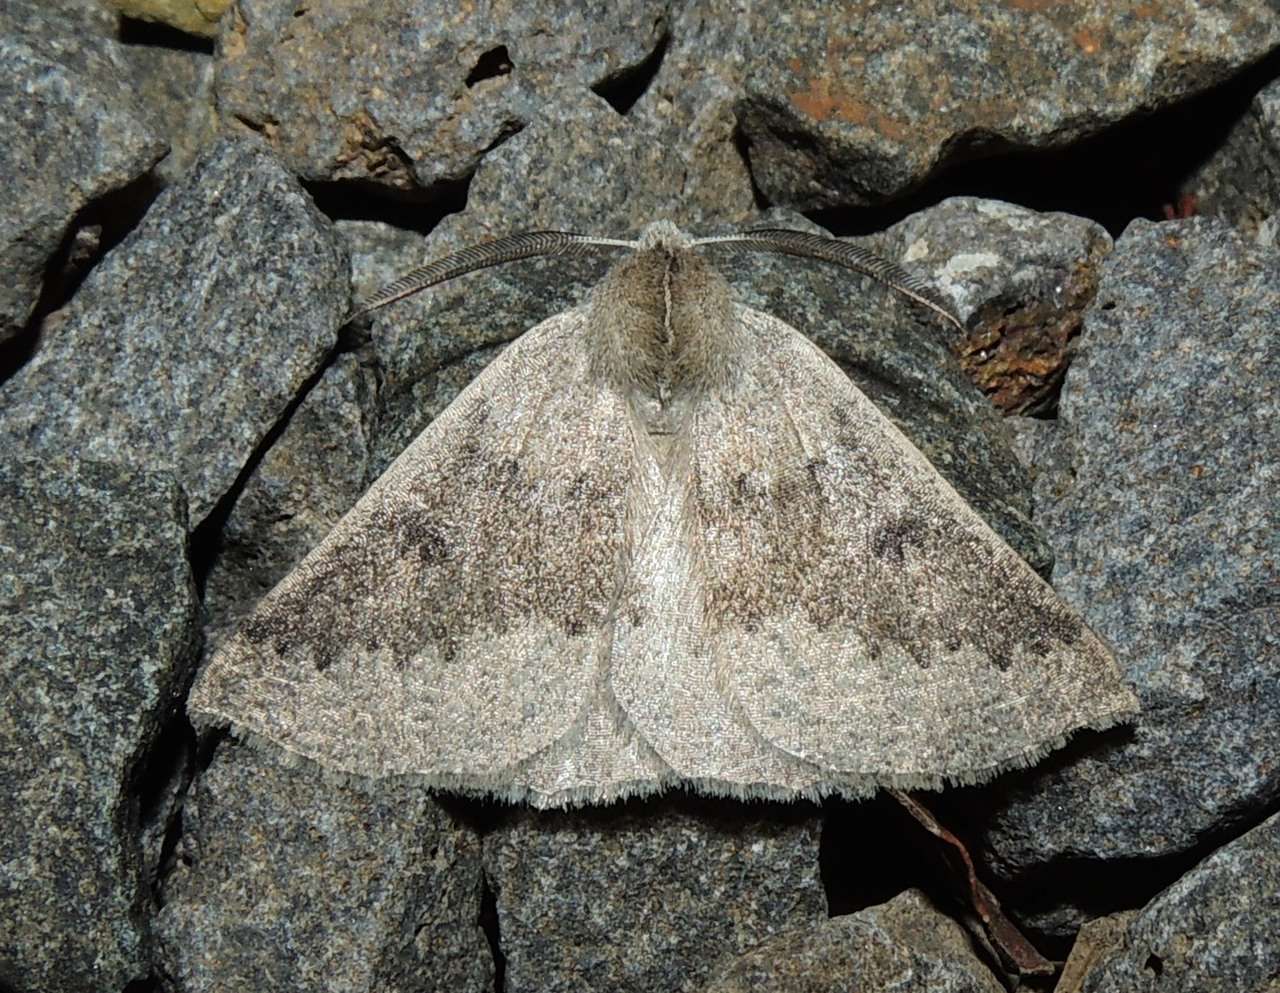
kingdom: Animalia
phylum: Arthropoda
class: Insecta
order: Lepidoptera
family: Geometridae
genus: Androchela
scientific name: Androchela milvaria
